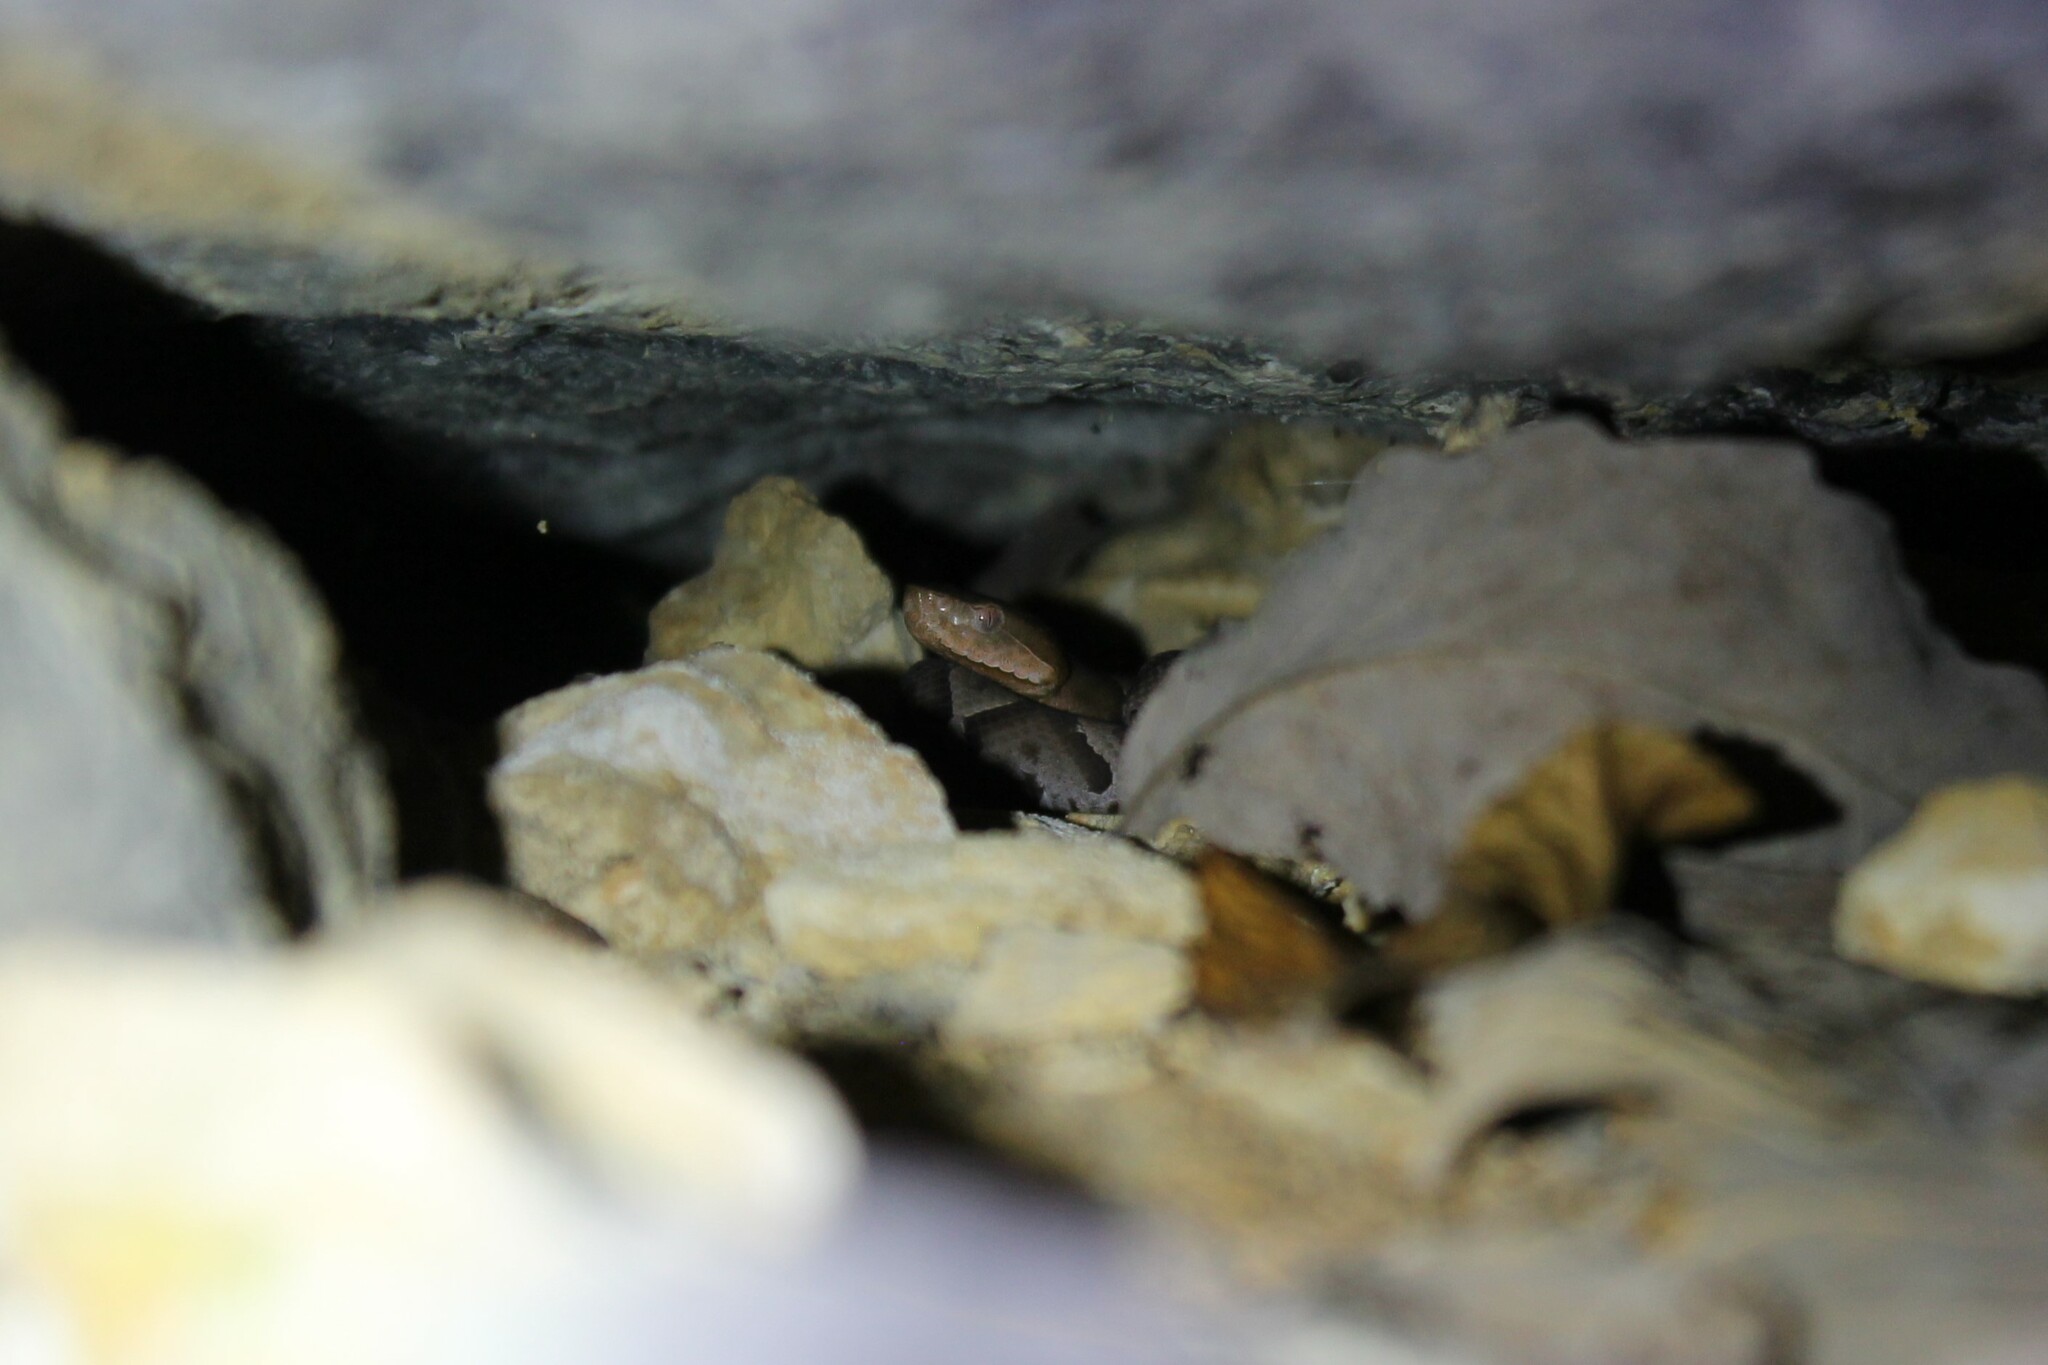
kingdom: Animalia
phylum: Chordata
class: Squamata
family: Viperidae
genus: Agkistrodon
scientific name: Agkistrodon contortrix
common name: Northern copperhead
